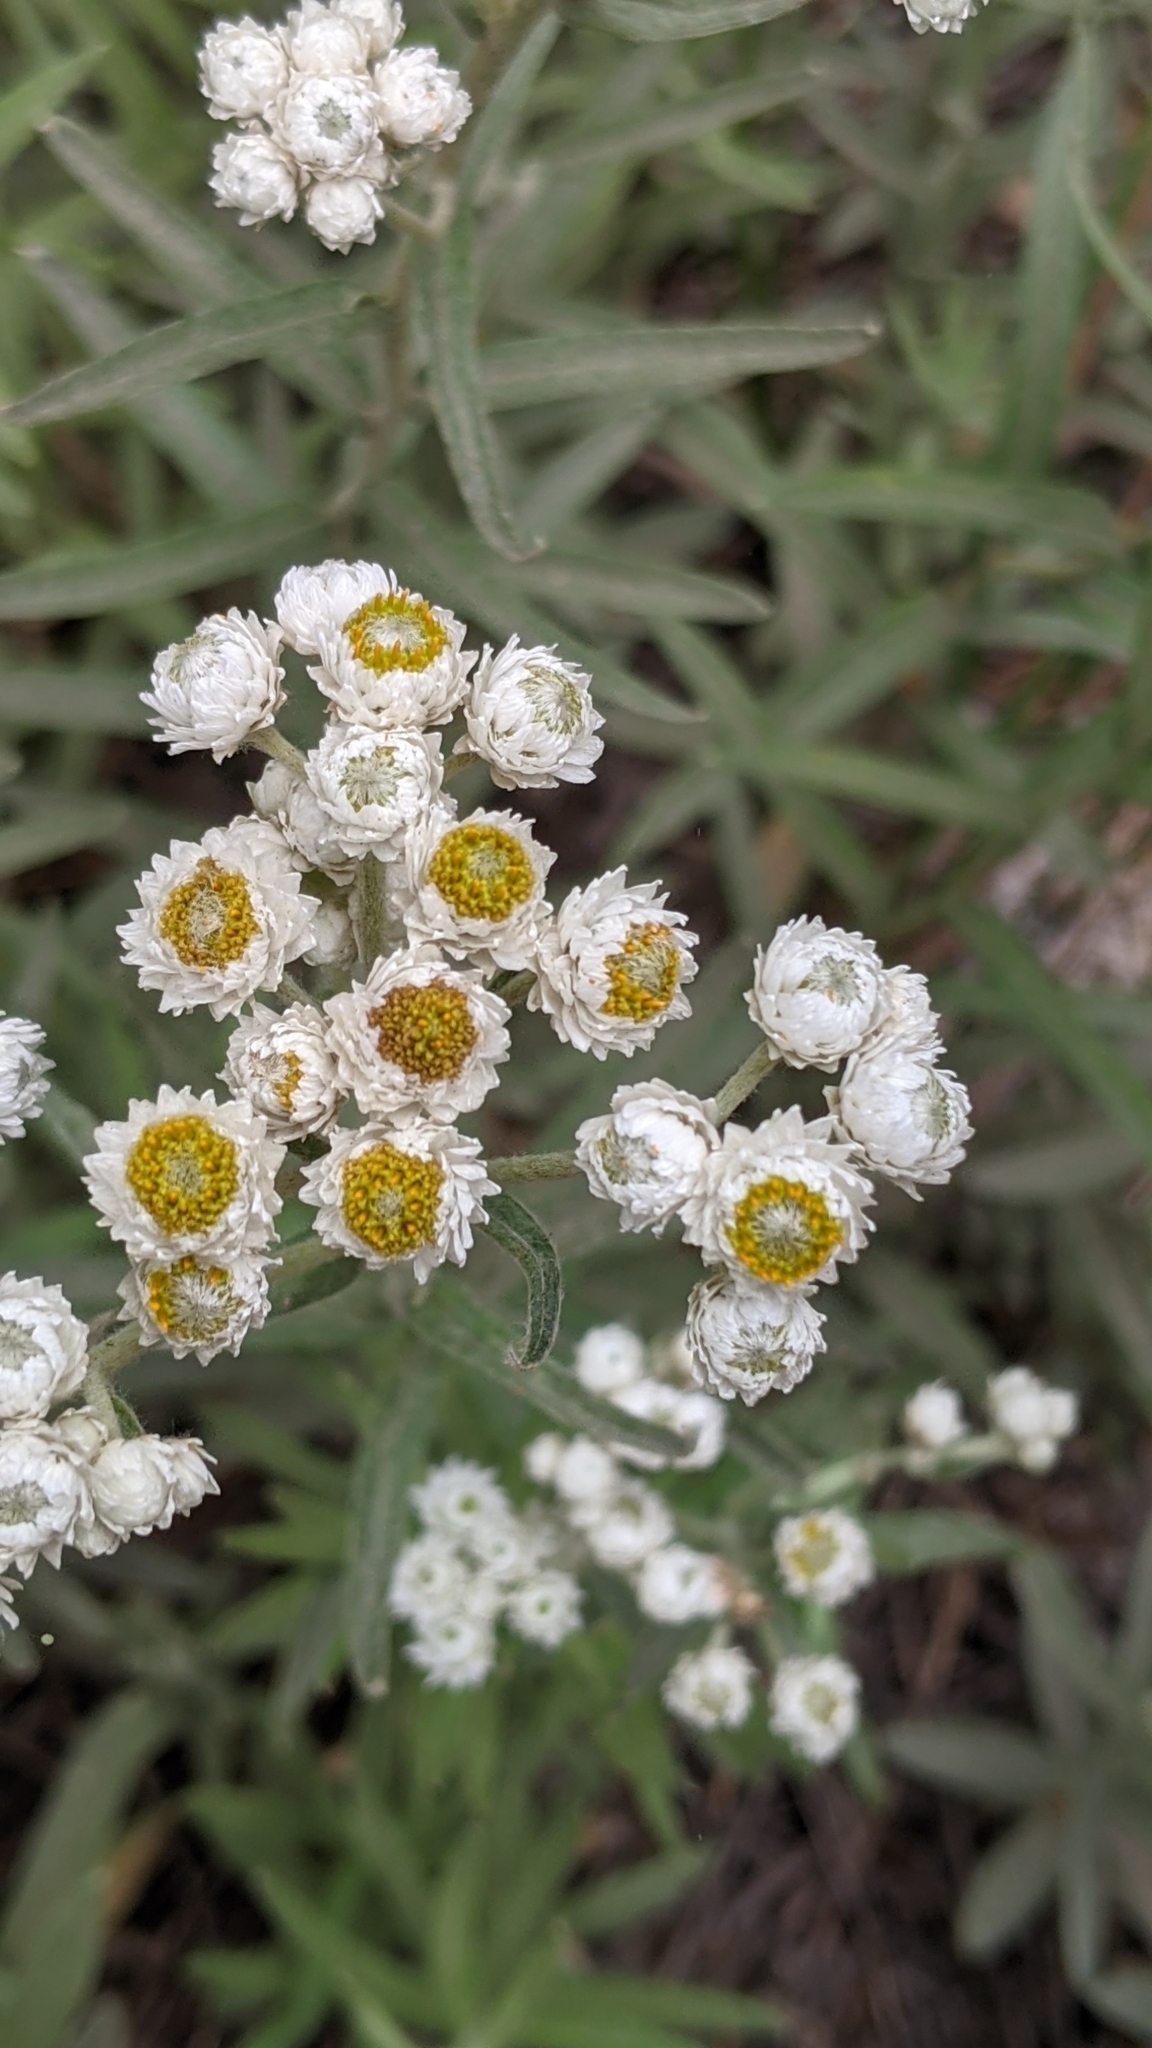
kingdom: Plantae
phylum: Tracheophyta
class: Magnoliopsida
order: Asterales
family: Asteraceae
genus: Anaphalis
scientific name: Anaphalis margaritacea
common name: Pearly everlasting
